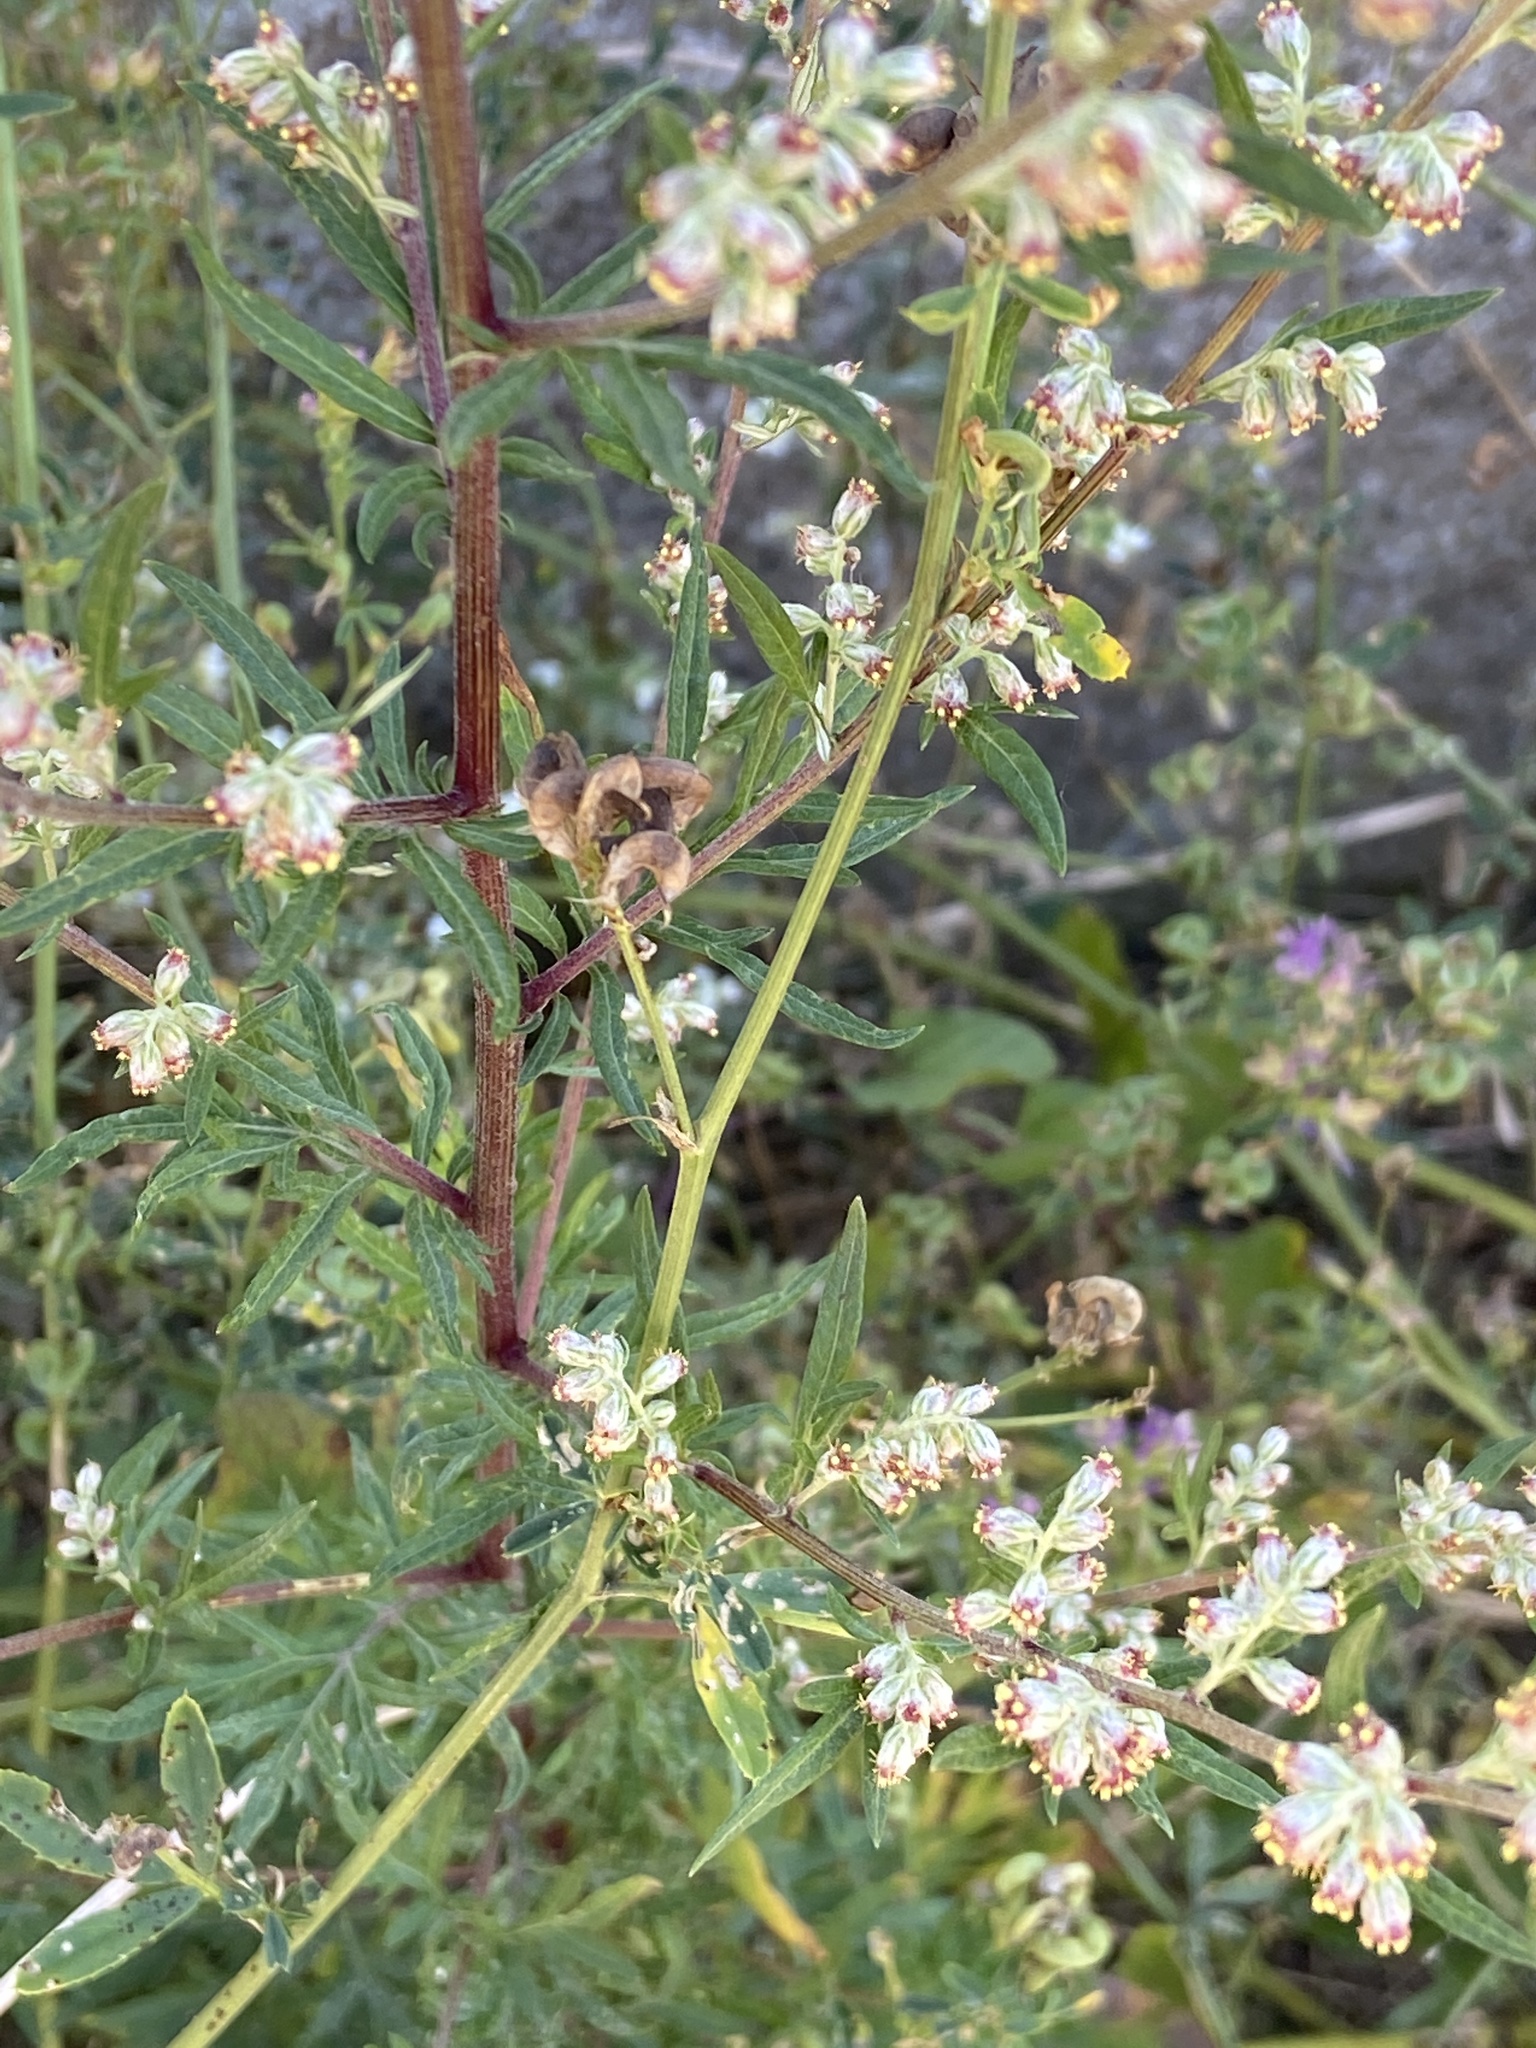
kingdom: Plantae
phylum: Tracheophyta
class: Magnoliopsida
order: Asterales
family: Asteraceae
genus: Artemisia
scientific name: Artemisia vulgaris
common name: Mugwort
